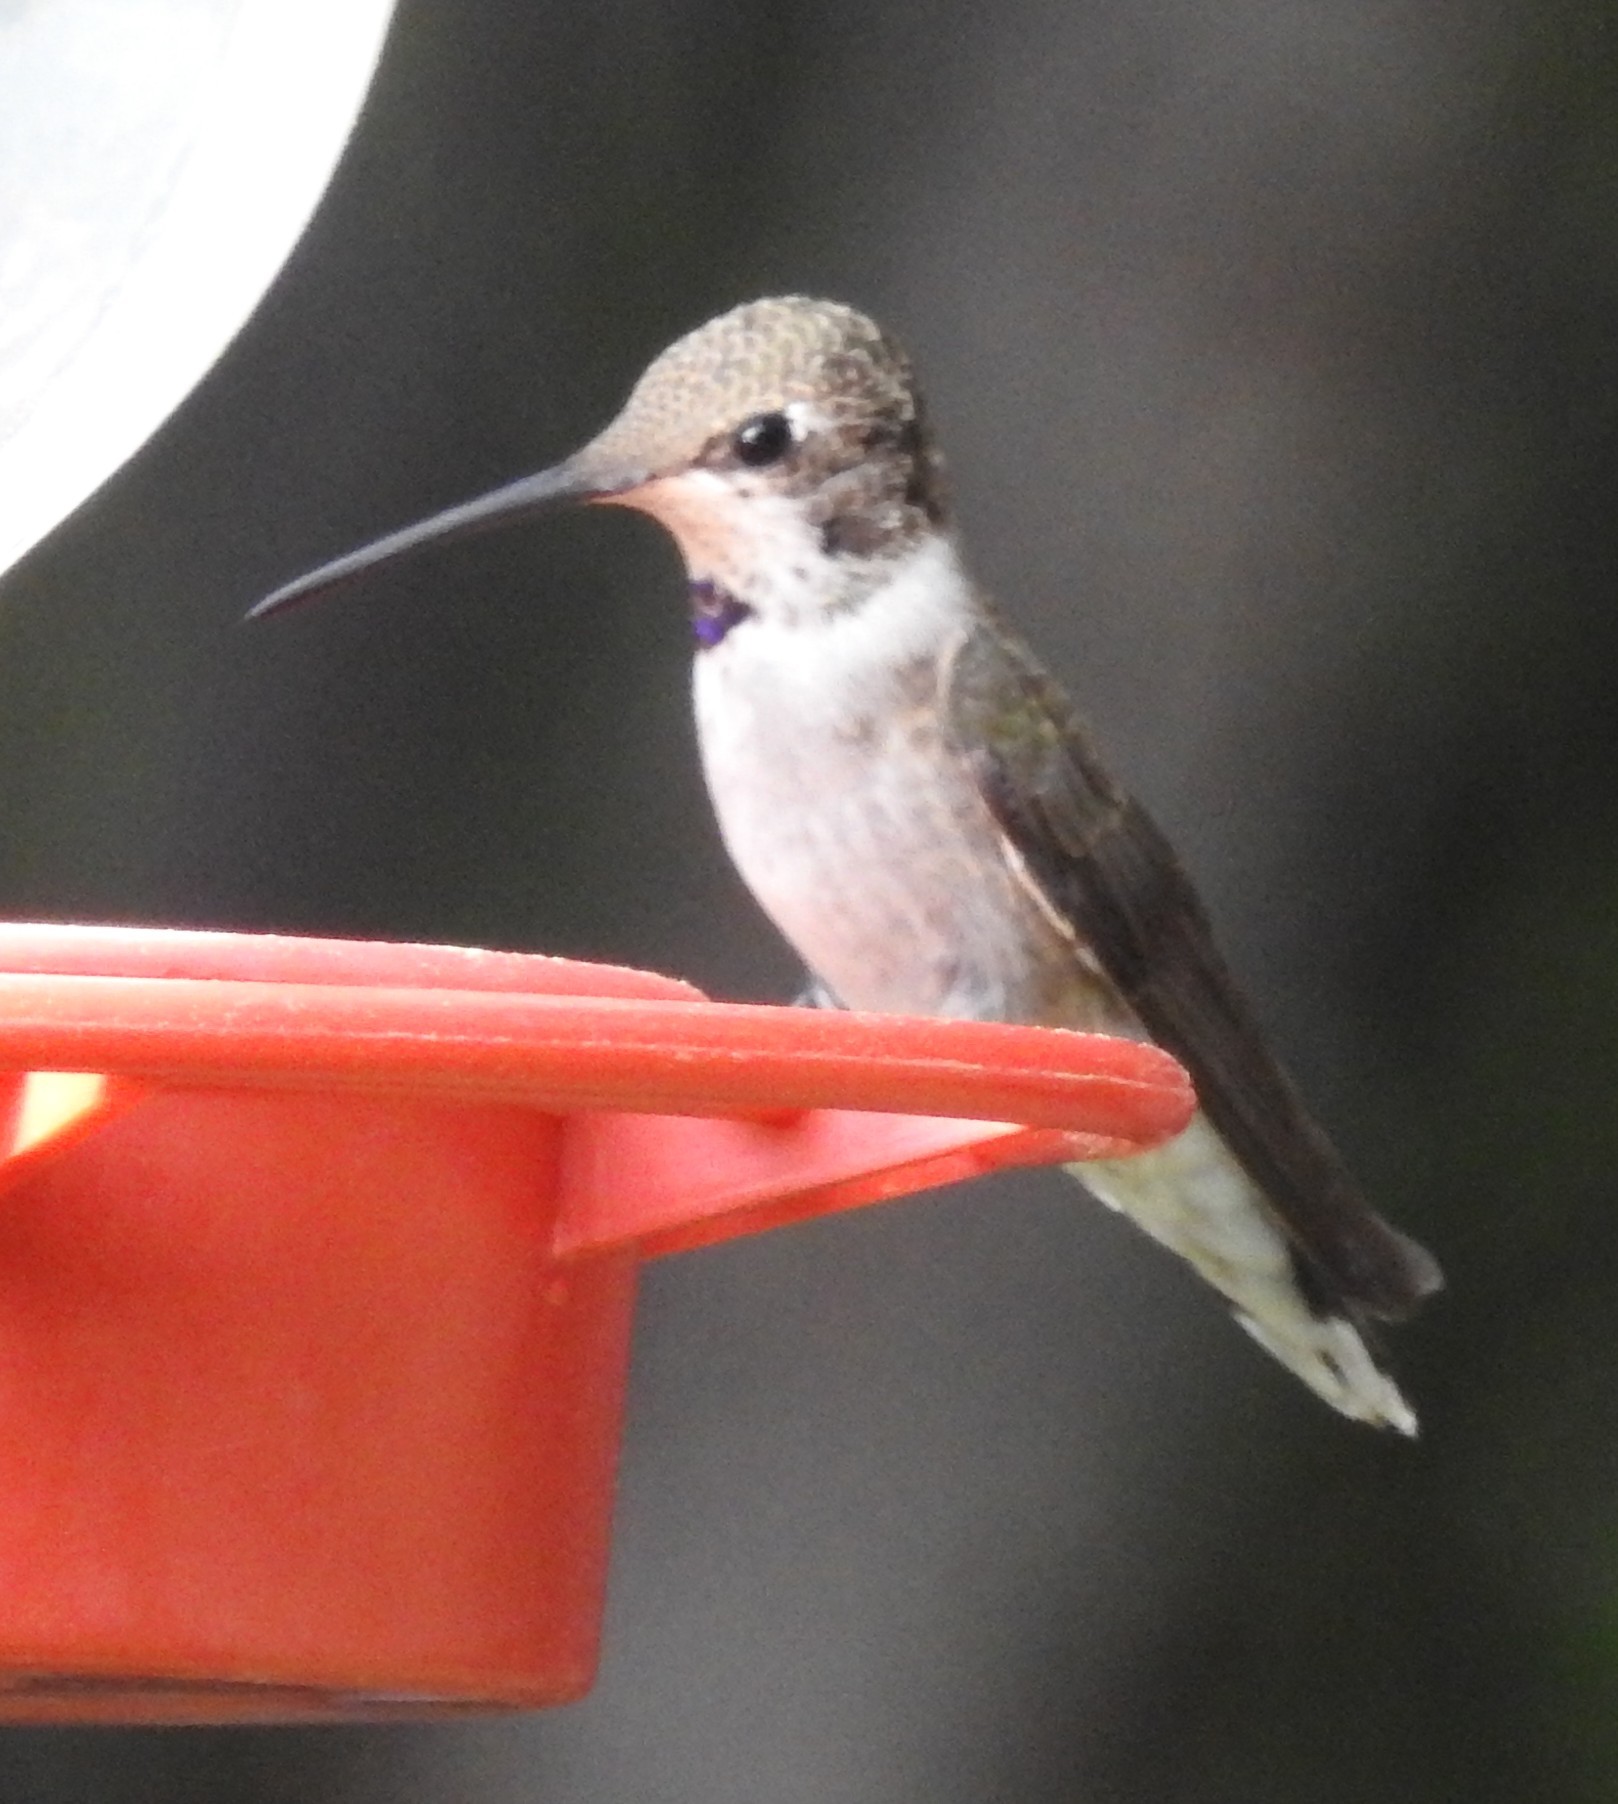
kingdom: Animalia
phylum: Chordata
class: Aves
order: Apodiformes
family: Trochilidae
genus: Archilochus
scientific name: Archilochus alexandri
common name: Black-chinned hummingbird
